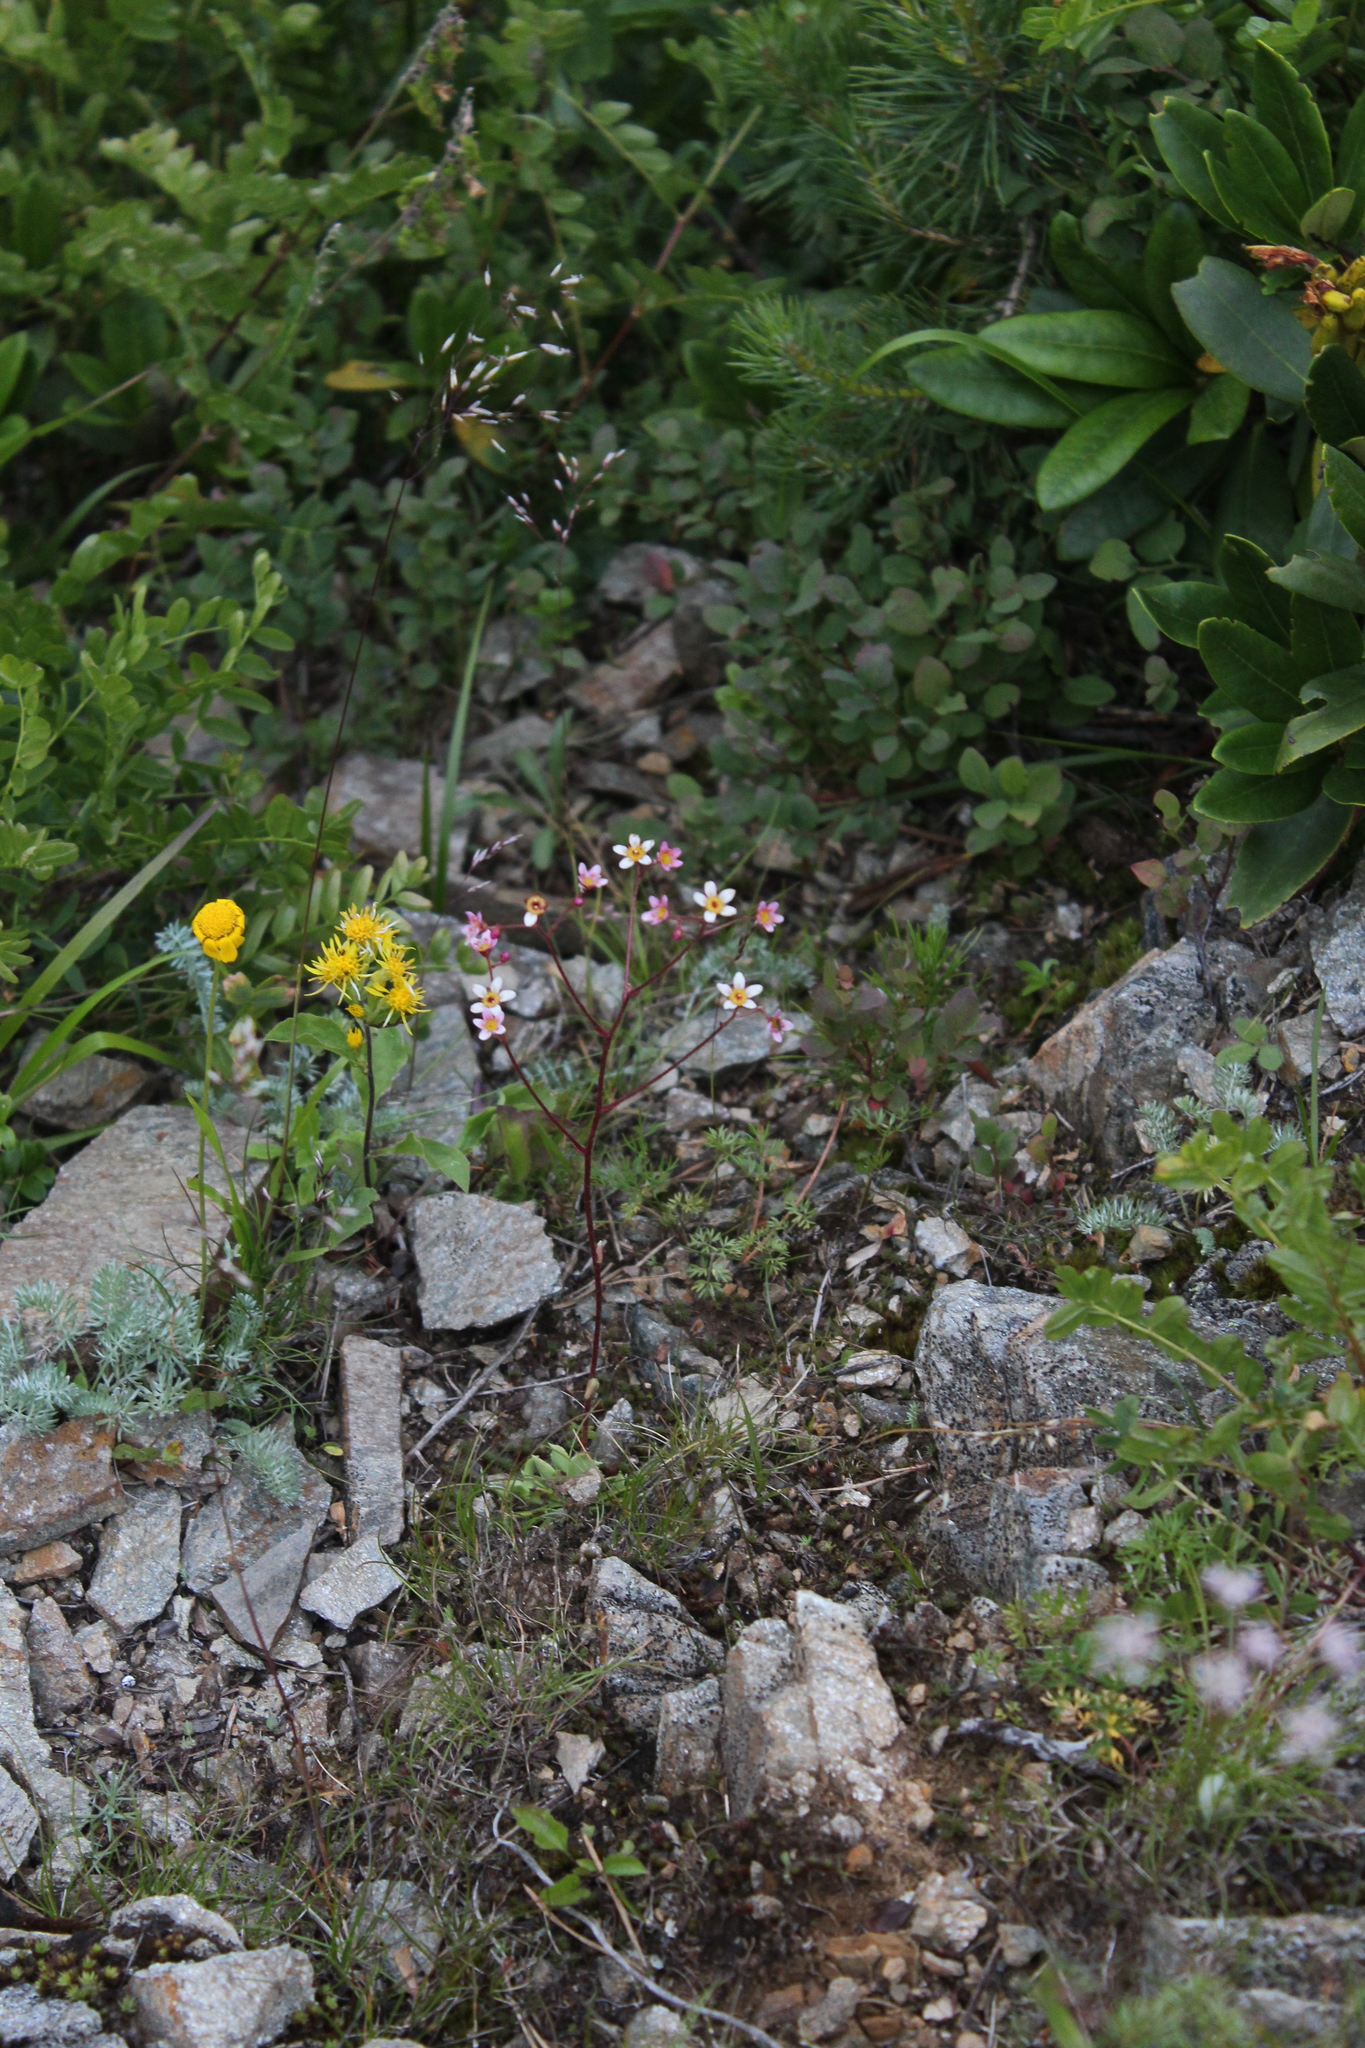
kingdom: Plantae
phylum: Tracheophyta
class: Magnoliopsida
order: Saxifragales
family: Saxifragaceae
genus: Saxifraga
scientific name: Saxifraga kolenatiana
